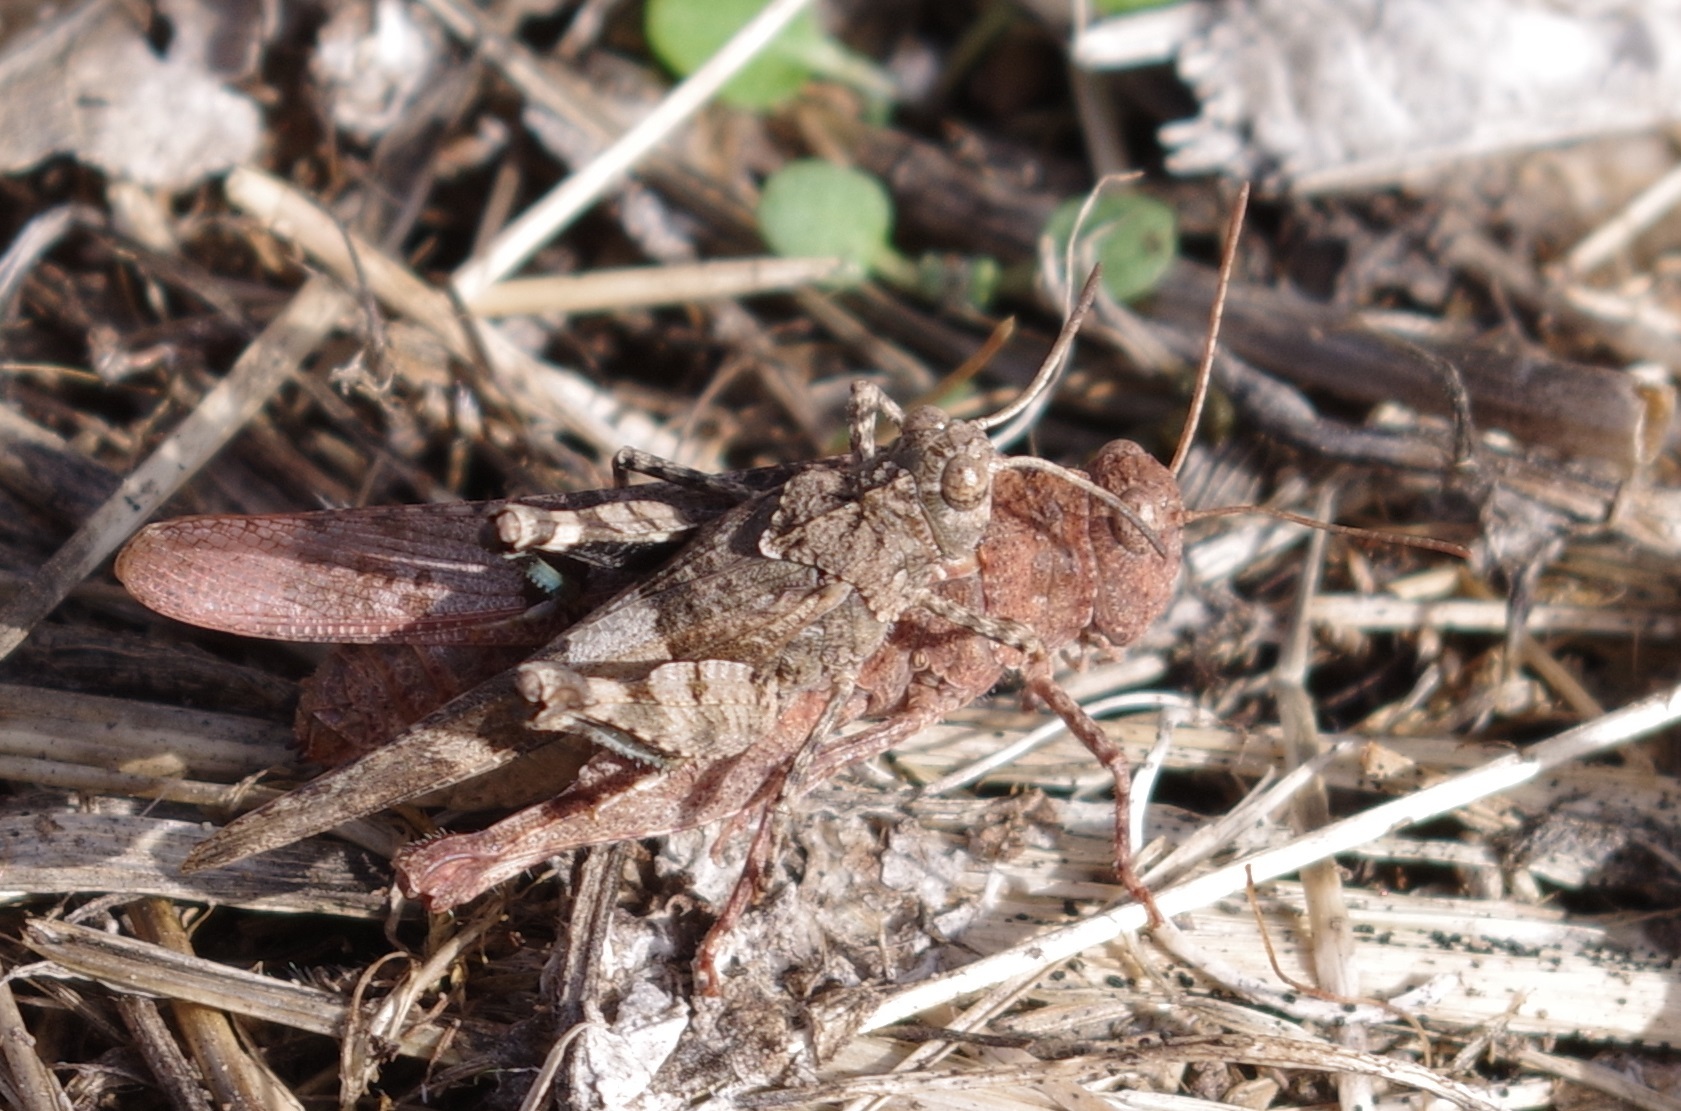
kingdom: Animalia
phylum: Arthropoda
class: Insecta
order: Orthoptera
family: Acrididae
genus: Oedipoda
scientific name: Oedipoda caerulescens
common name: Blue-winged grasshopper
